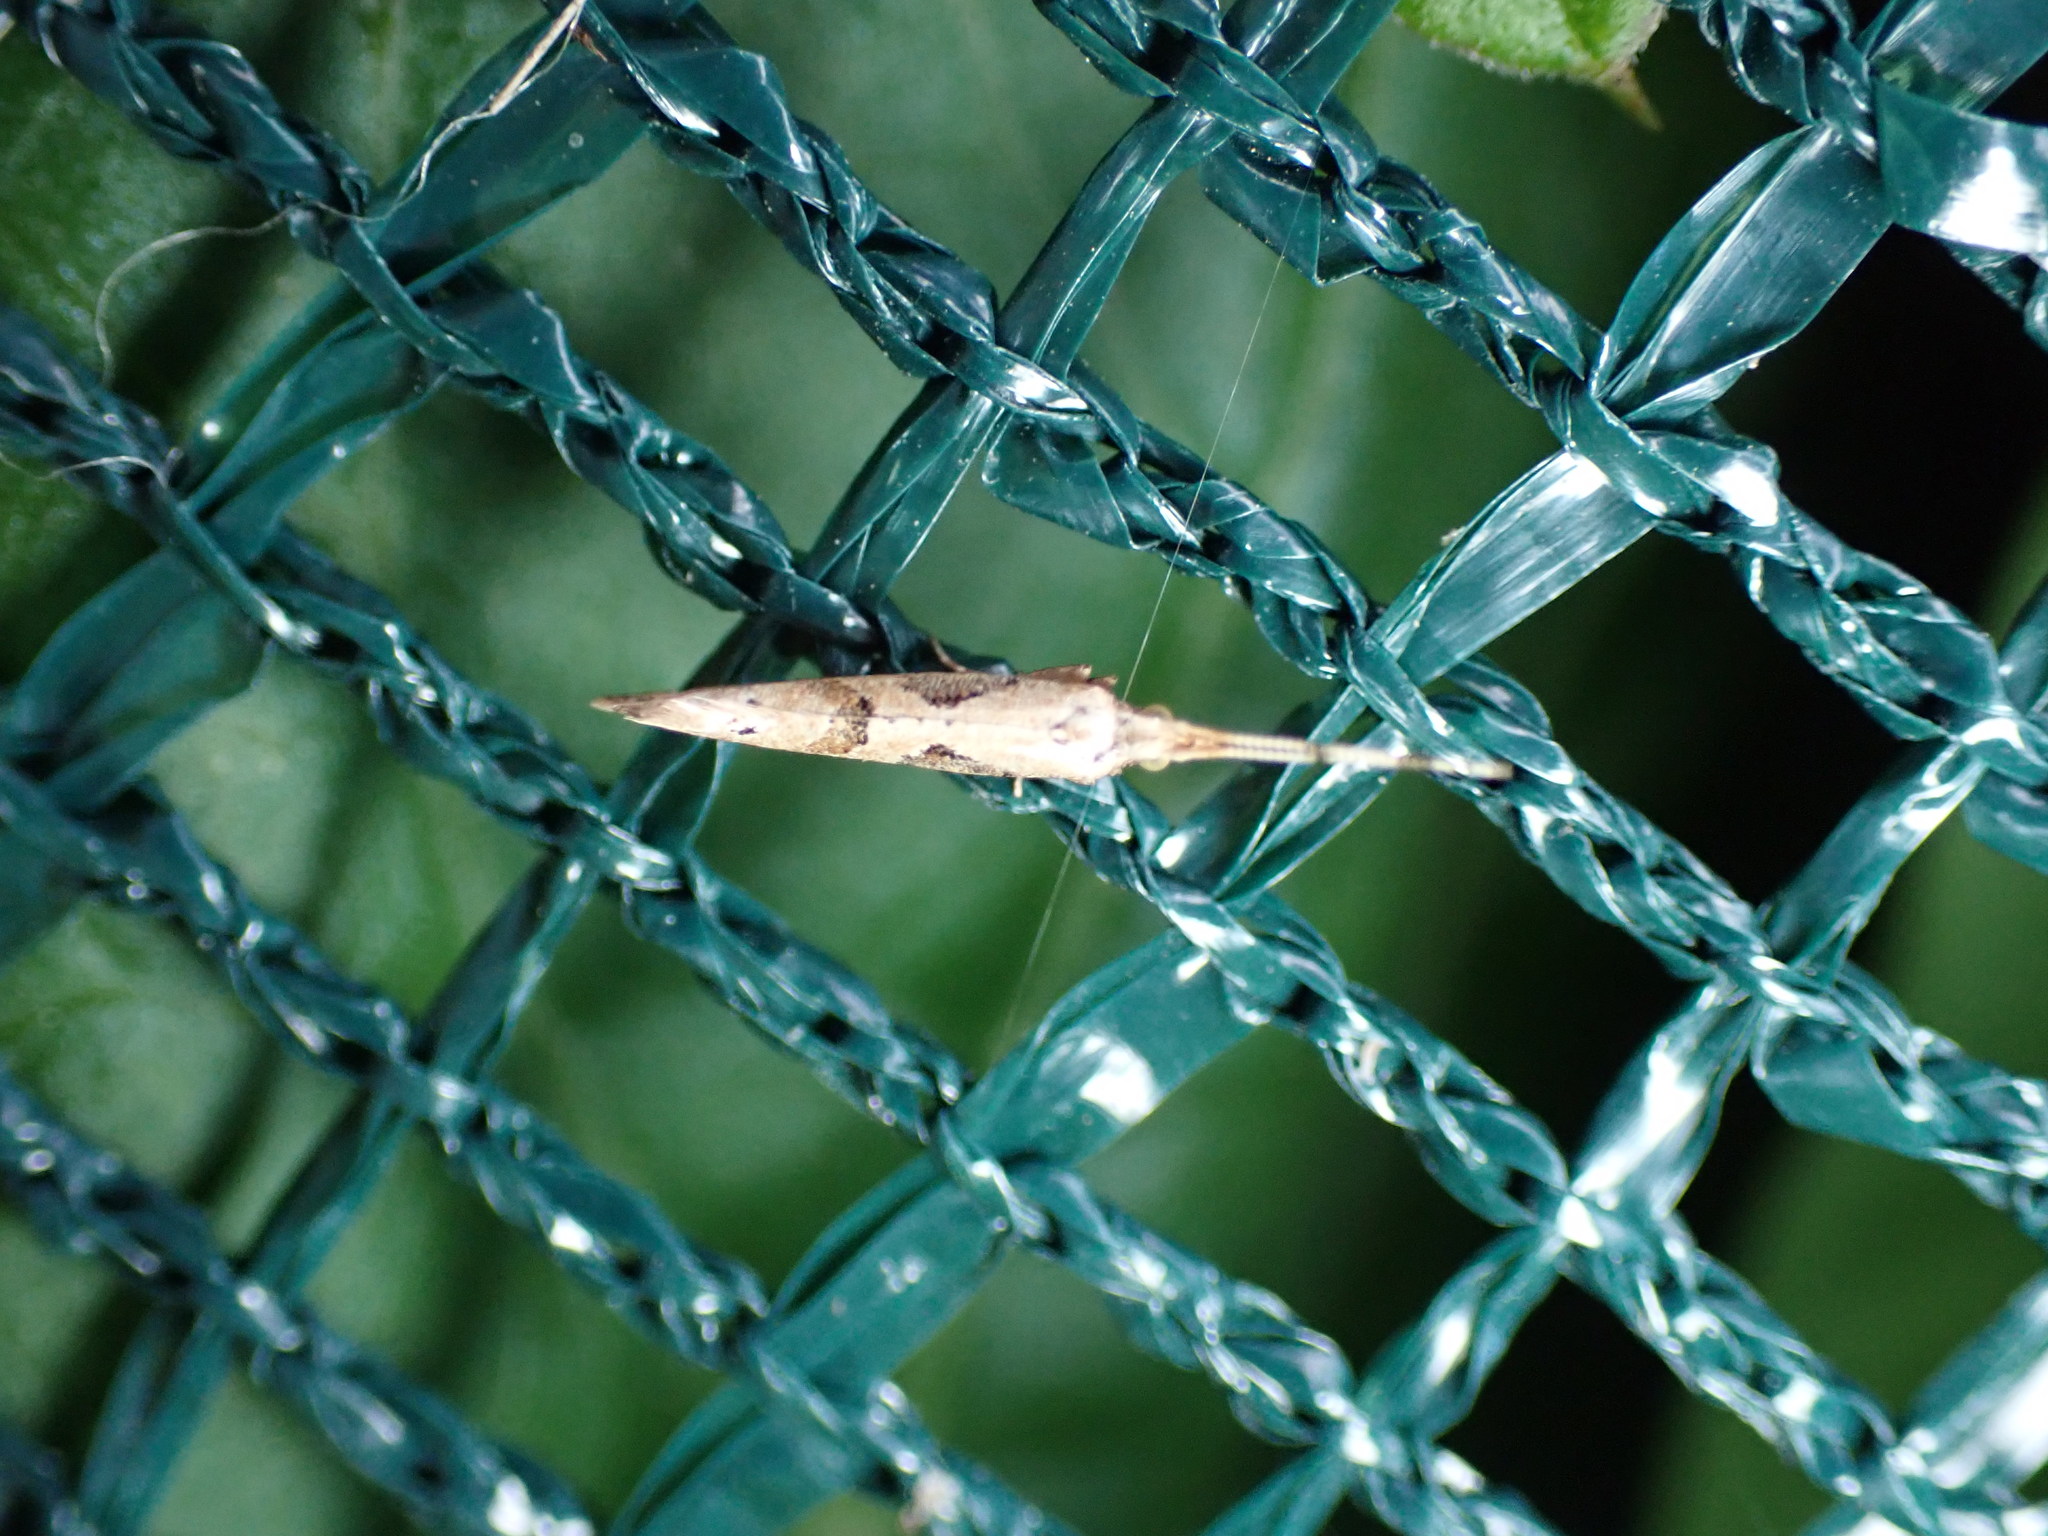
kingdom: Animalia
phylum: Arthropoda
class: Insecta
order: Lepidoptera
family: Plutellidae
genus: Leuroperna
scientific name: Leuroperna sera
